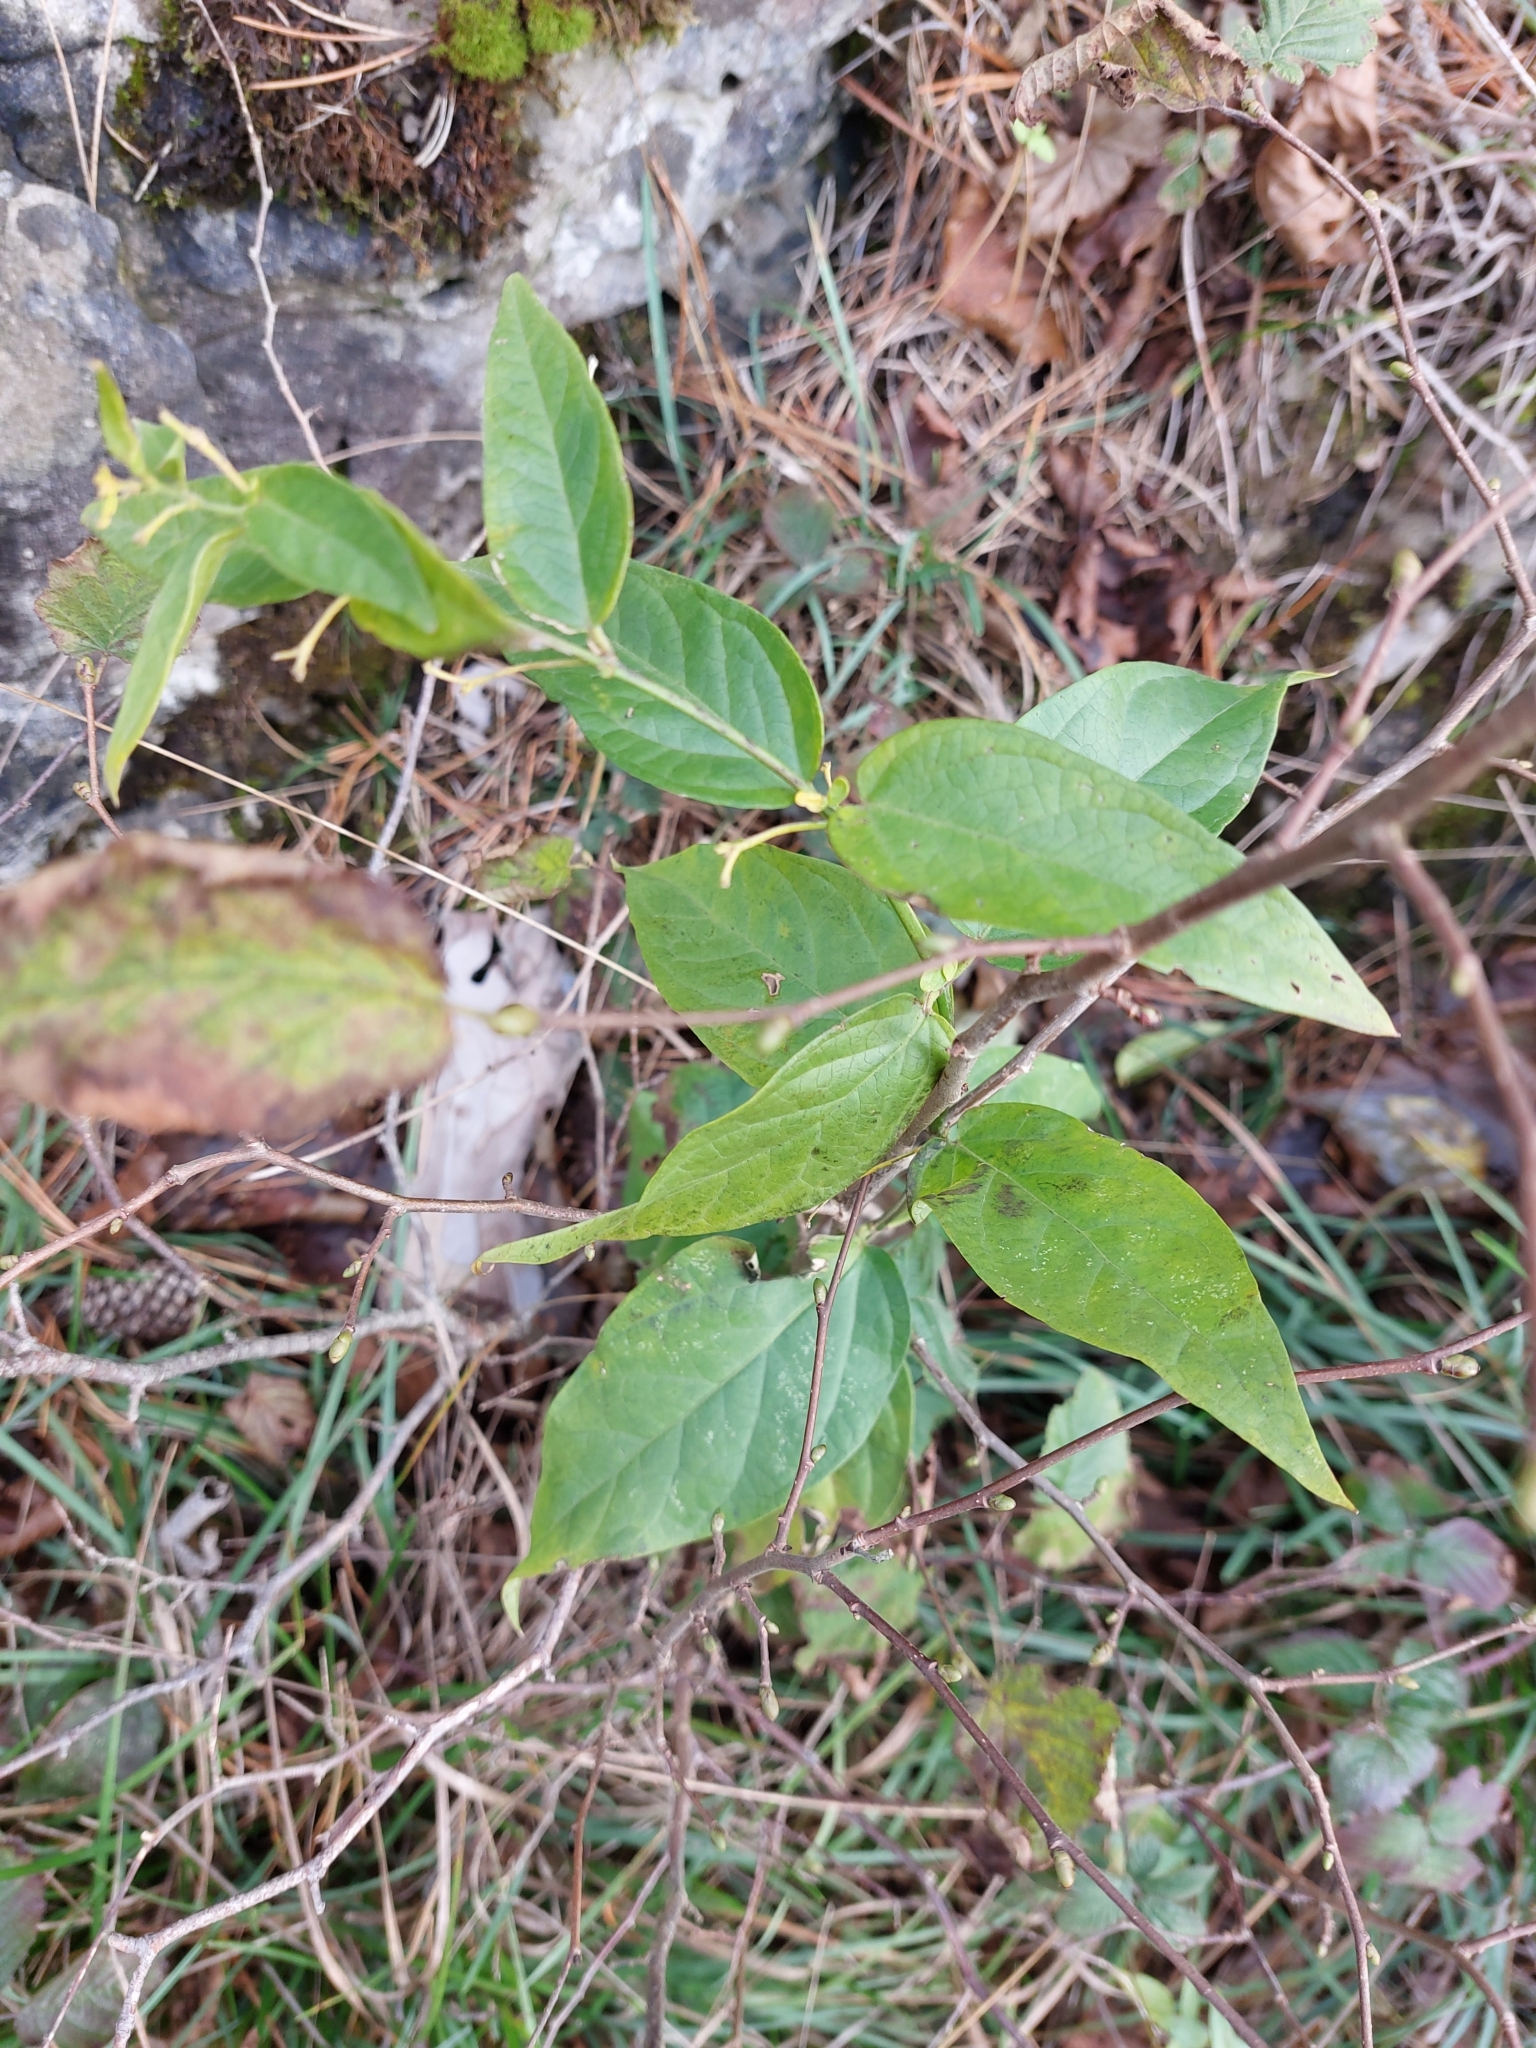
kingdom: Plantae
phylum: Tracheophyta
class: Magnoliopsida
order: Gentianales
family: Apocynaceae
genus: Vincetoxicum
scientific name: Vincetoxicum nigrum
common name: Black swallow-wort
